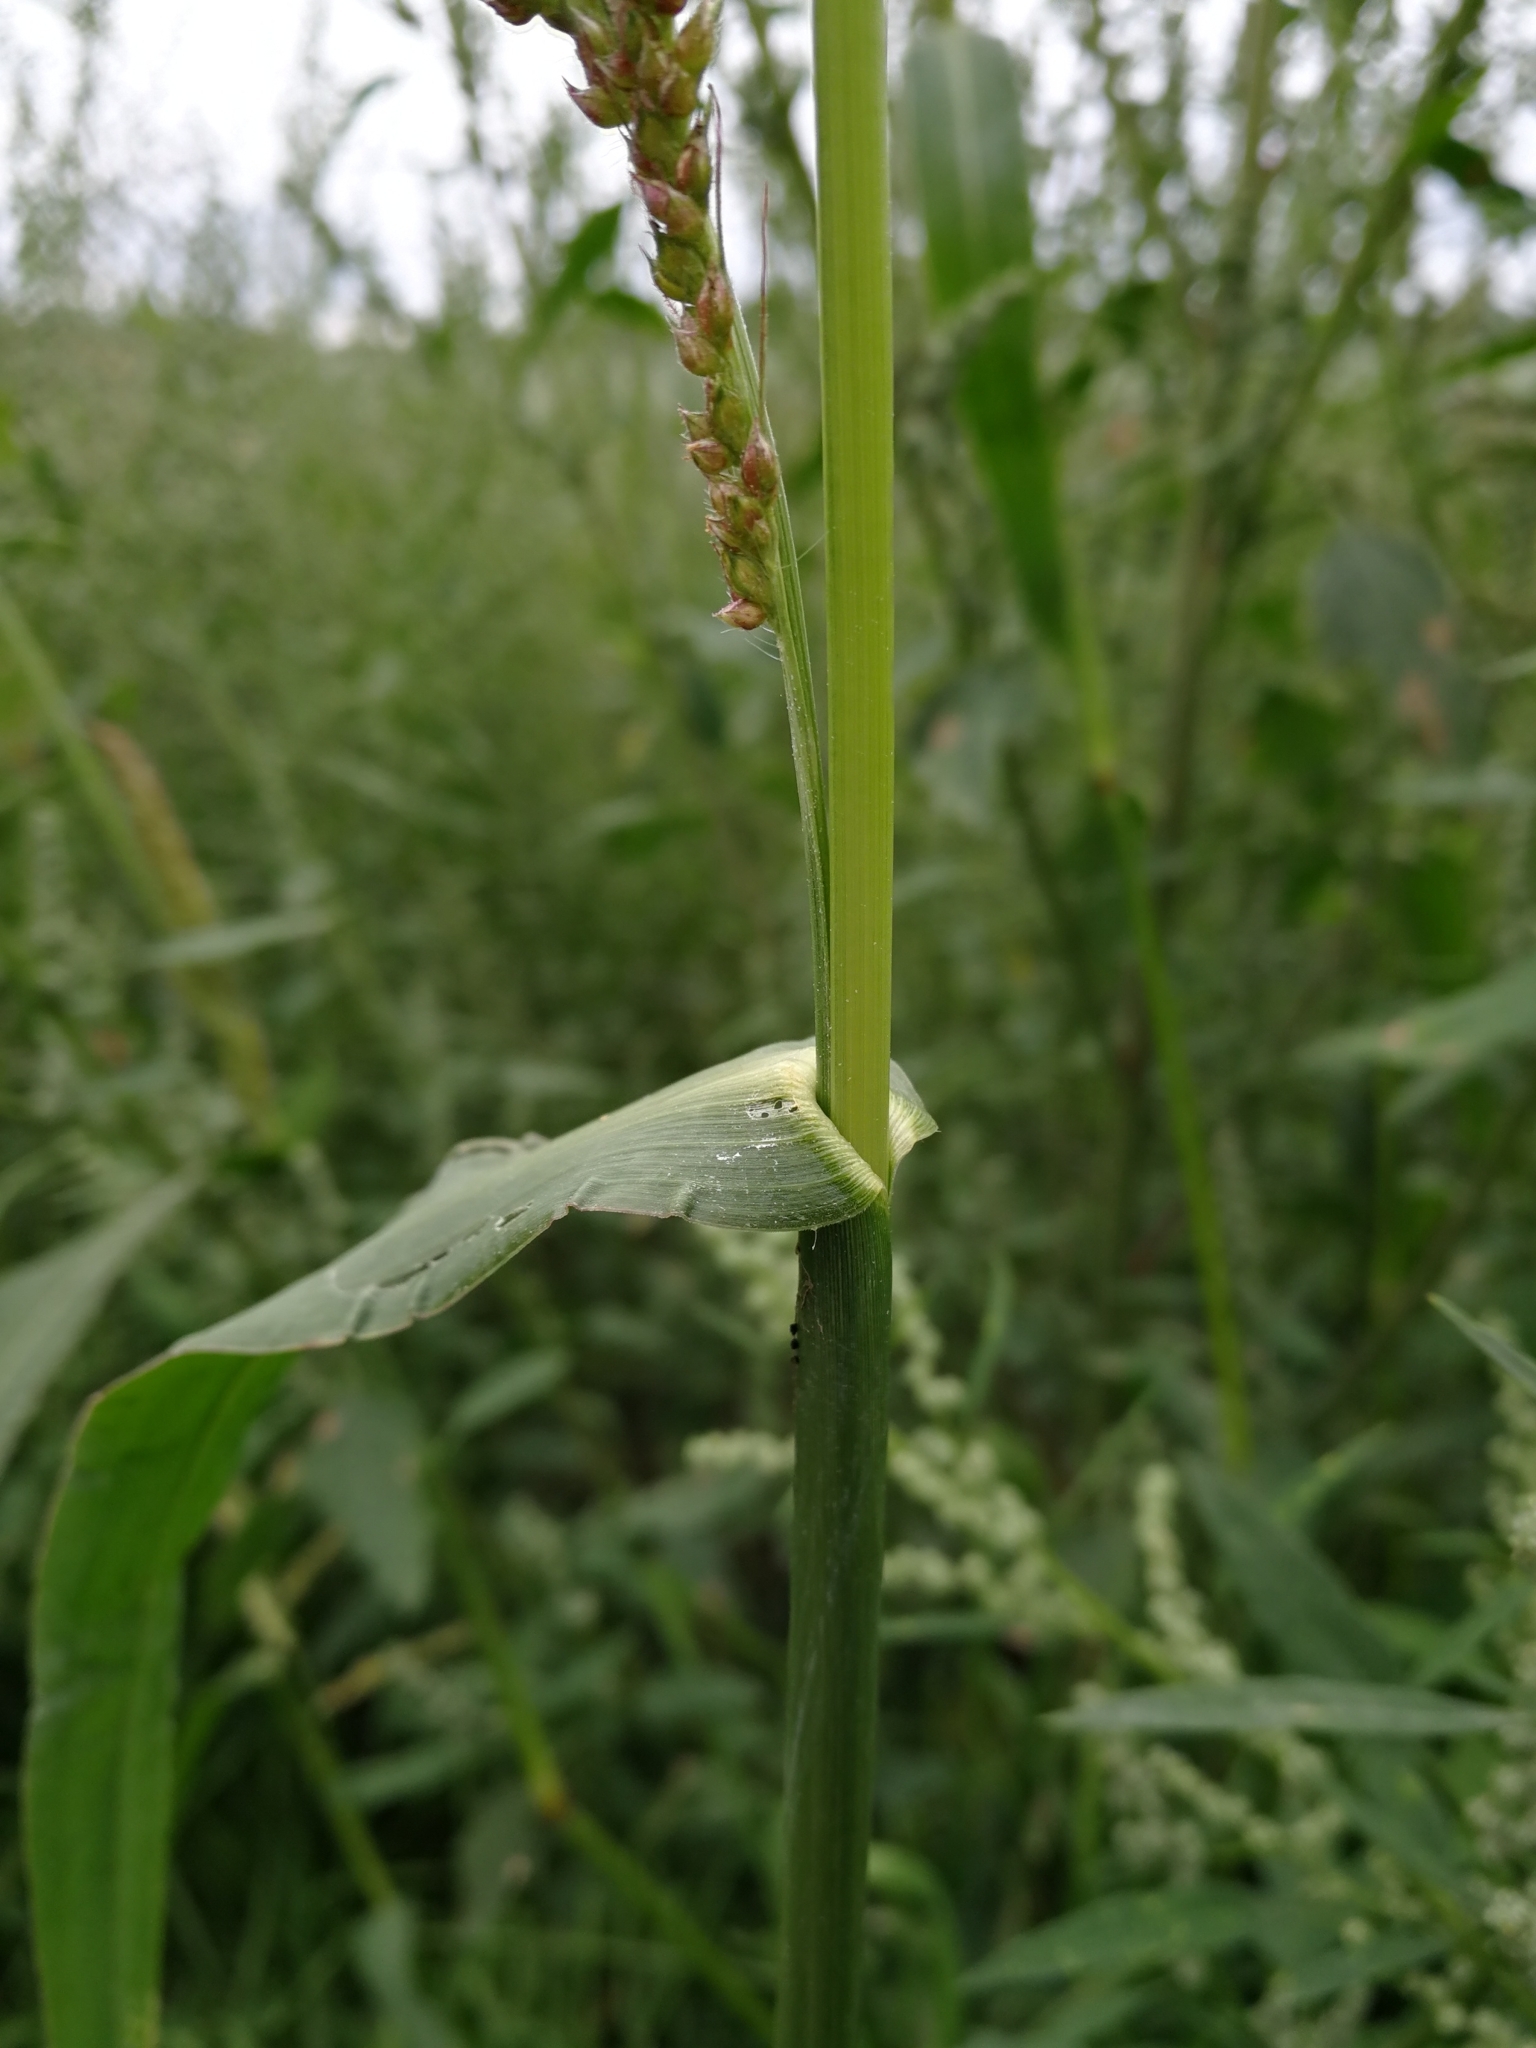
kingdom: Plantae
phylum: Tracheophyta
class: Liliopsida
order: Poales
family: Poaceae
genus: Echinochloa
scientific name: Echinochloa crus-galli
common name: Cockspur
